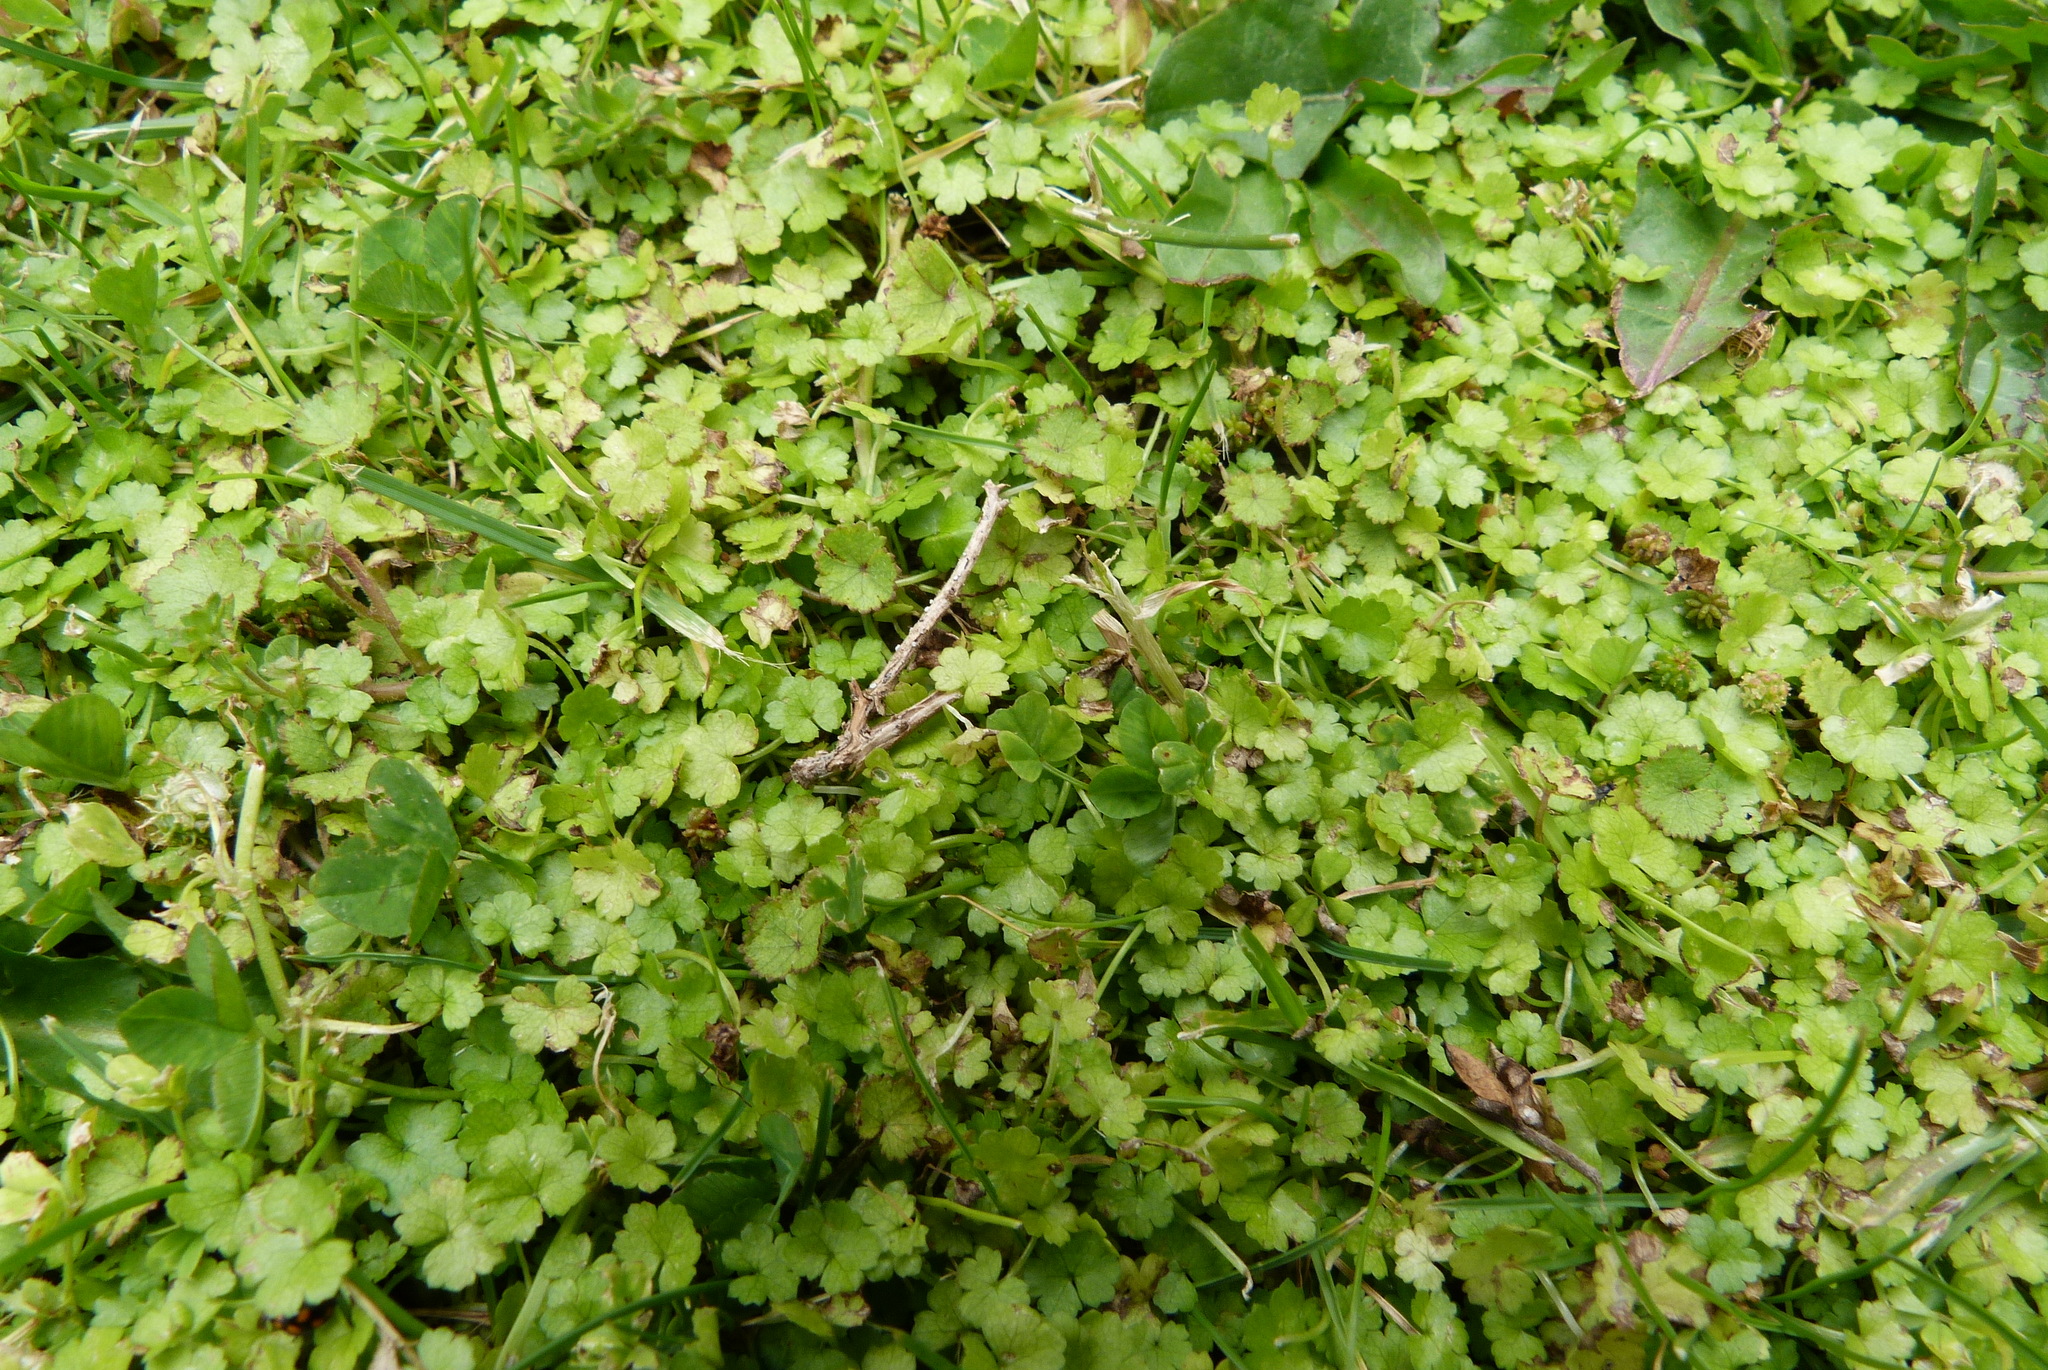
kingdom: Plantae
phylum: Tracheophyta
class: Magnoliopsida
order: Apiales
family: Araliaceae
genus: Hydrocotyle
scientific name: Hydrocotyle heteromeria
